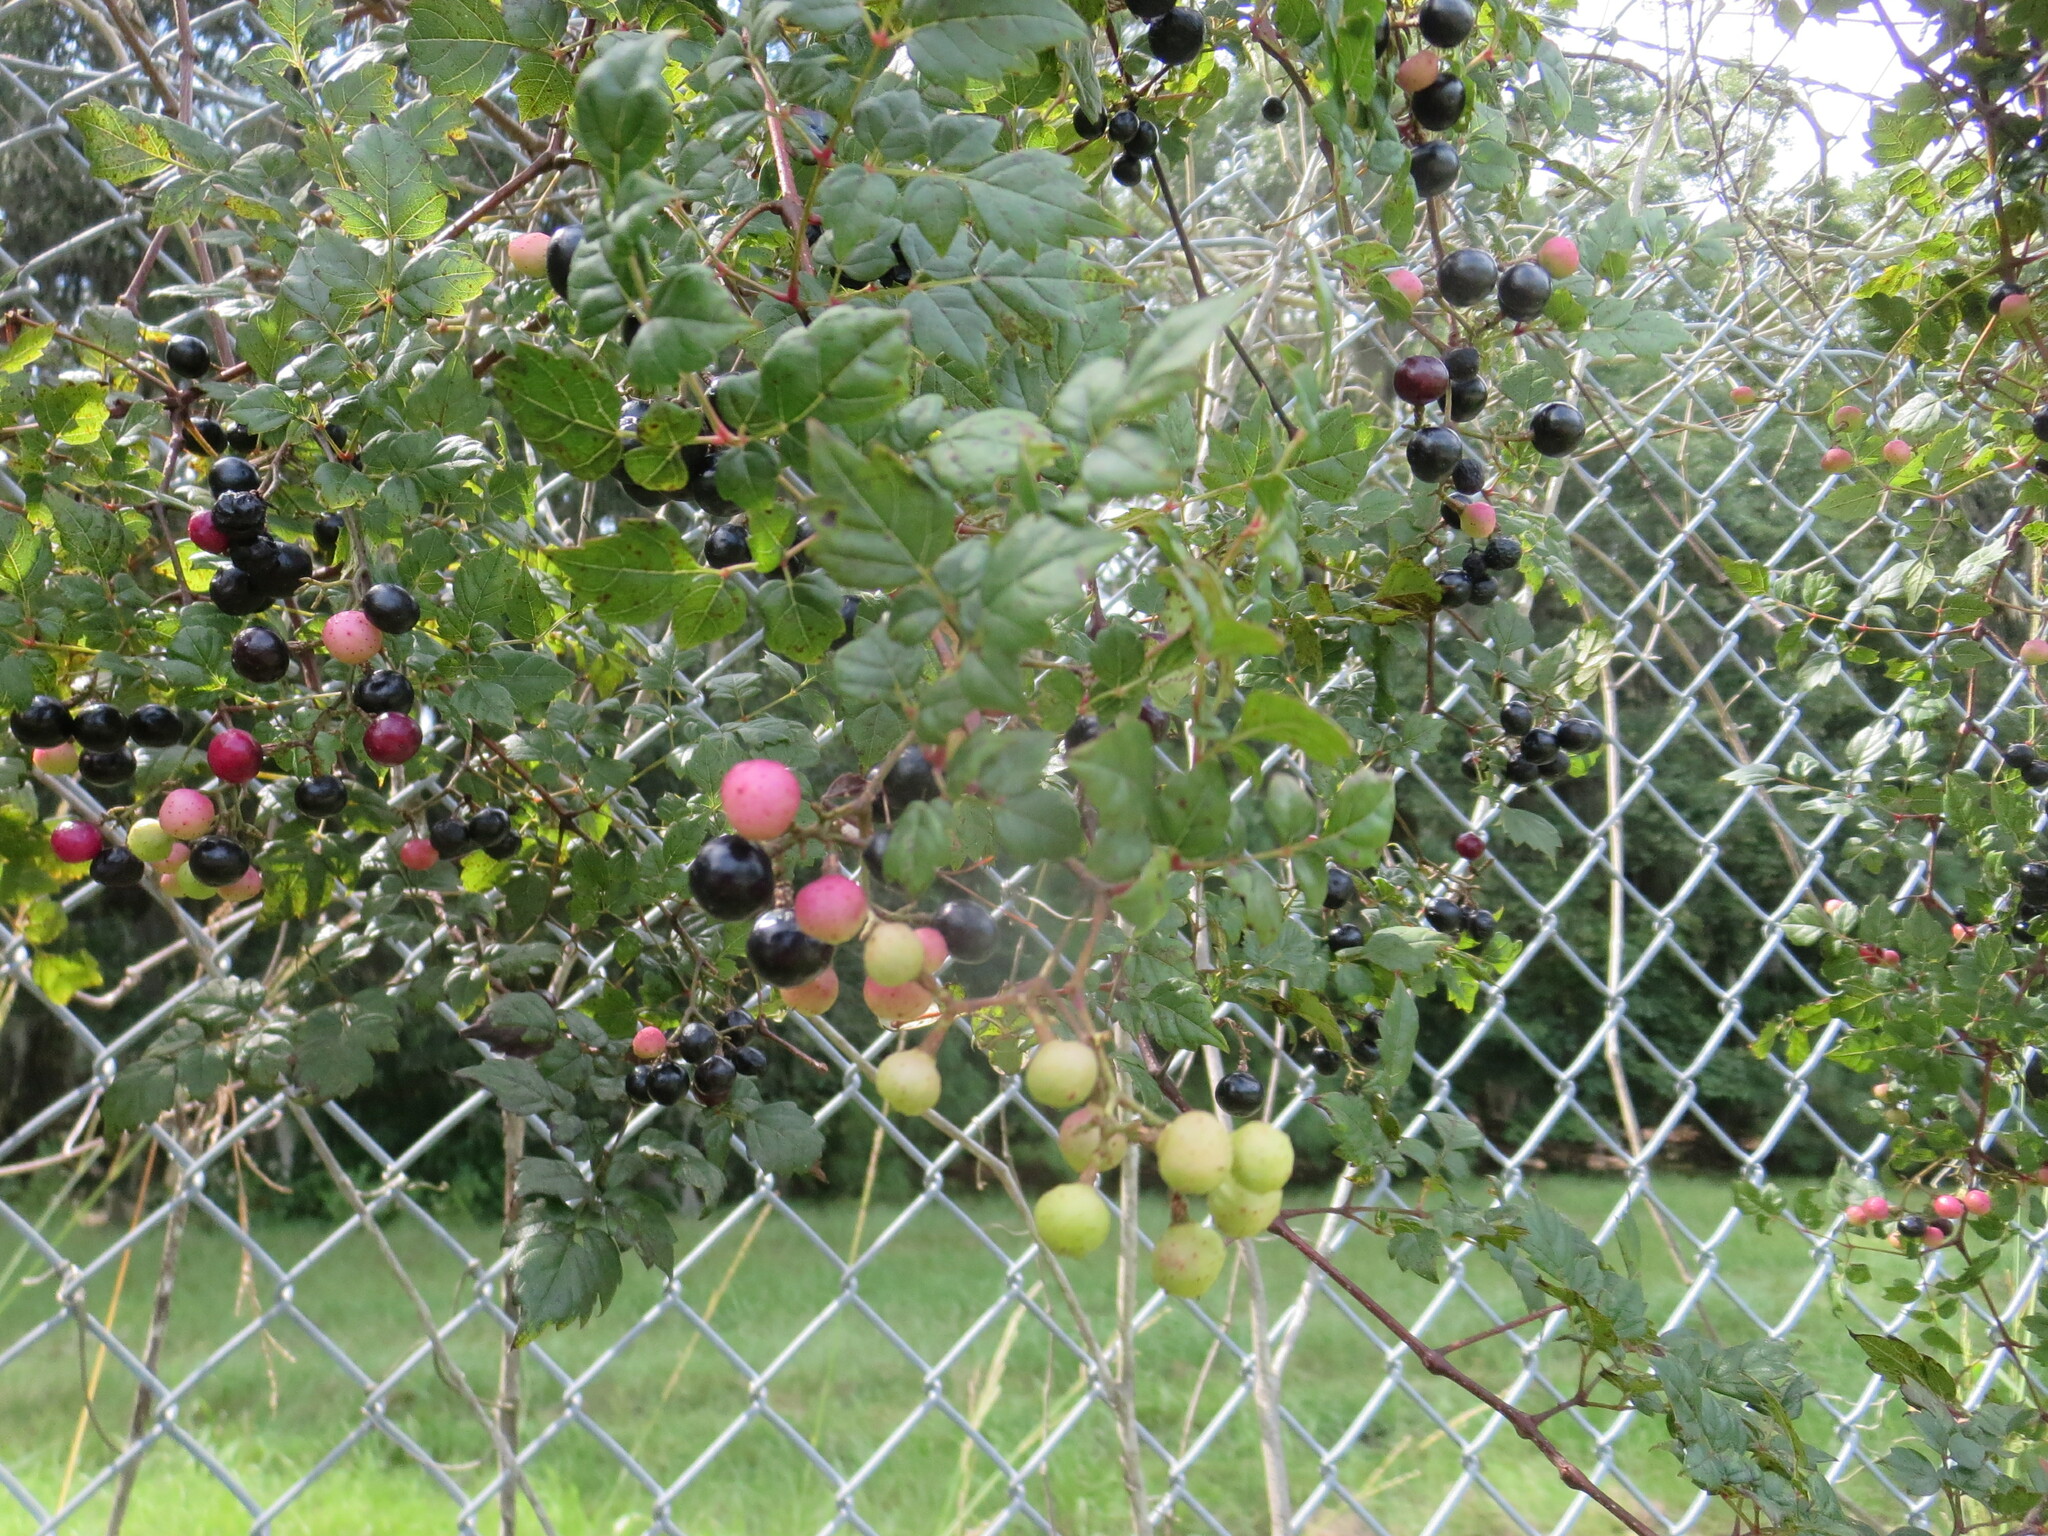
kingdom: Plantae
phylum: Tracheophyta
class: Magnoliopsida
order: Vitales
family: Vitaceae
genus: Nekemias
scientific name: Nekemias arborea
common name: Peppervine
